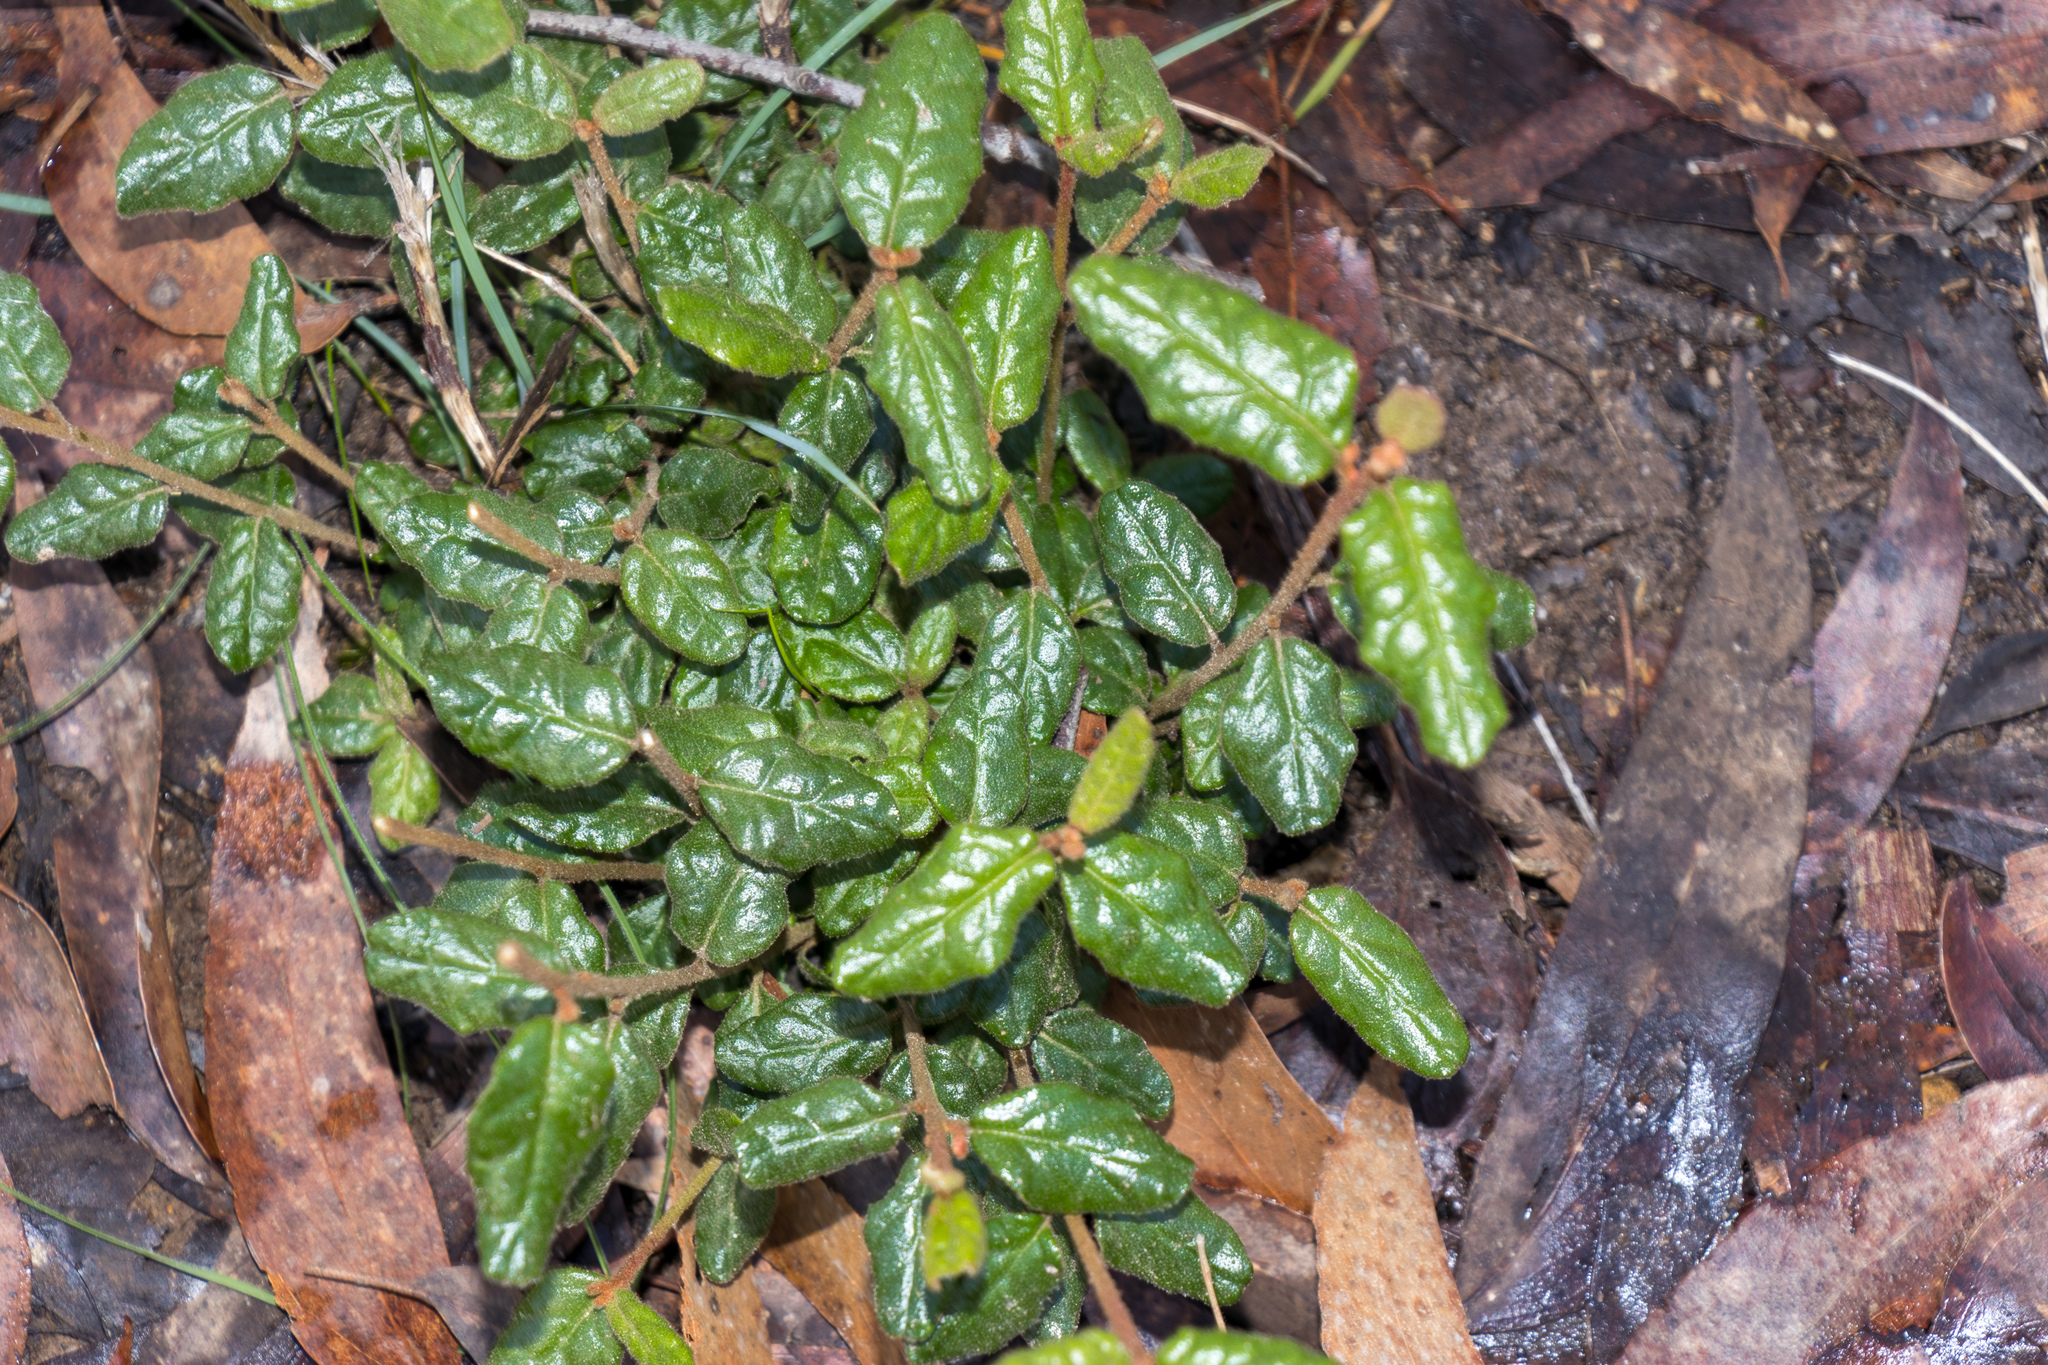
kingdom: Plantae
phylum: Tracheophyta
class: Magnoliopsida
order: Sapindales
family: Rutaceae
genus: Correa
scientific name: Correa reflexa
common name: Common correa
